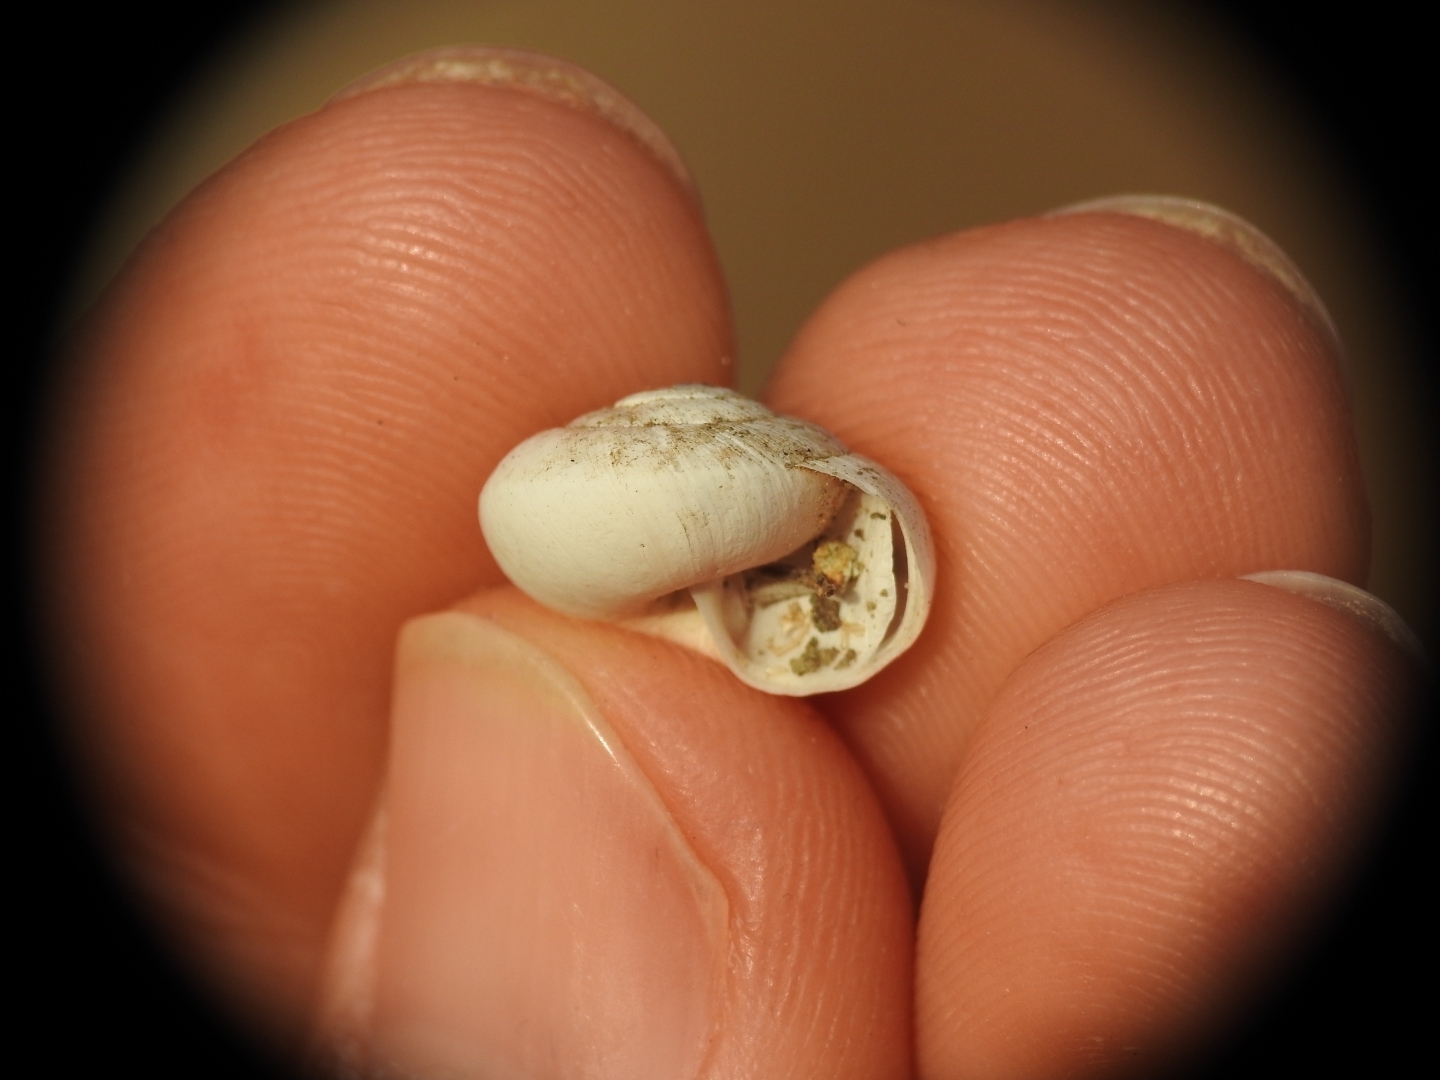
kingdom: Animalia
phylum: Mollusca
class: Gastropoda
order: Stylommatophora
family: Geomitridae
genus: Xerocrassa
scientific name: Xerocrassa cretica
